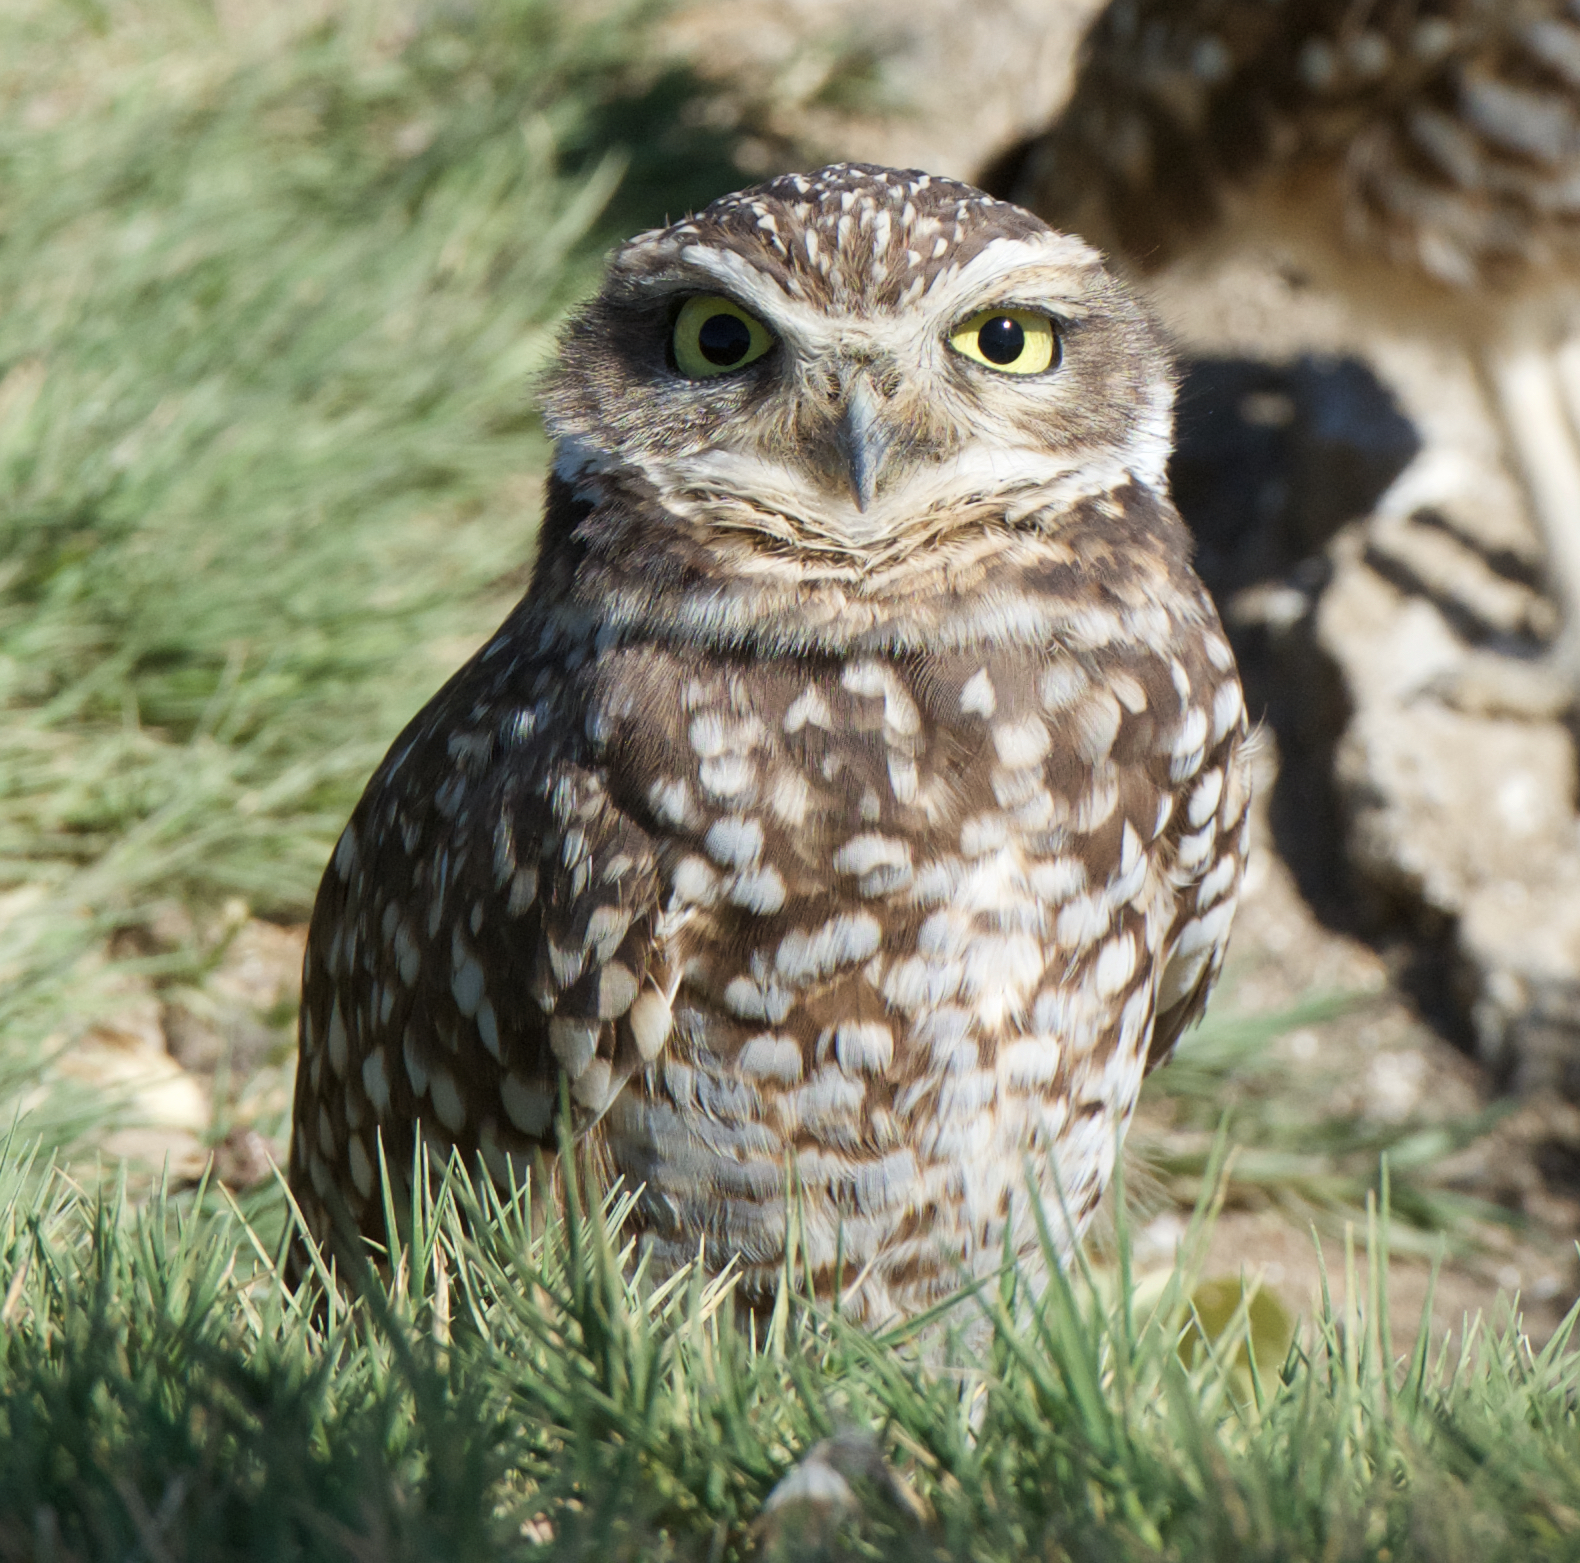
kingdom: Animalia
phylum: Chordata
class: Aves
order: Strigiformes
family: Strigidae
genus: Athene
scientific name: Athene cunicularia
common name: Burrowing owl
